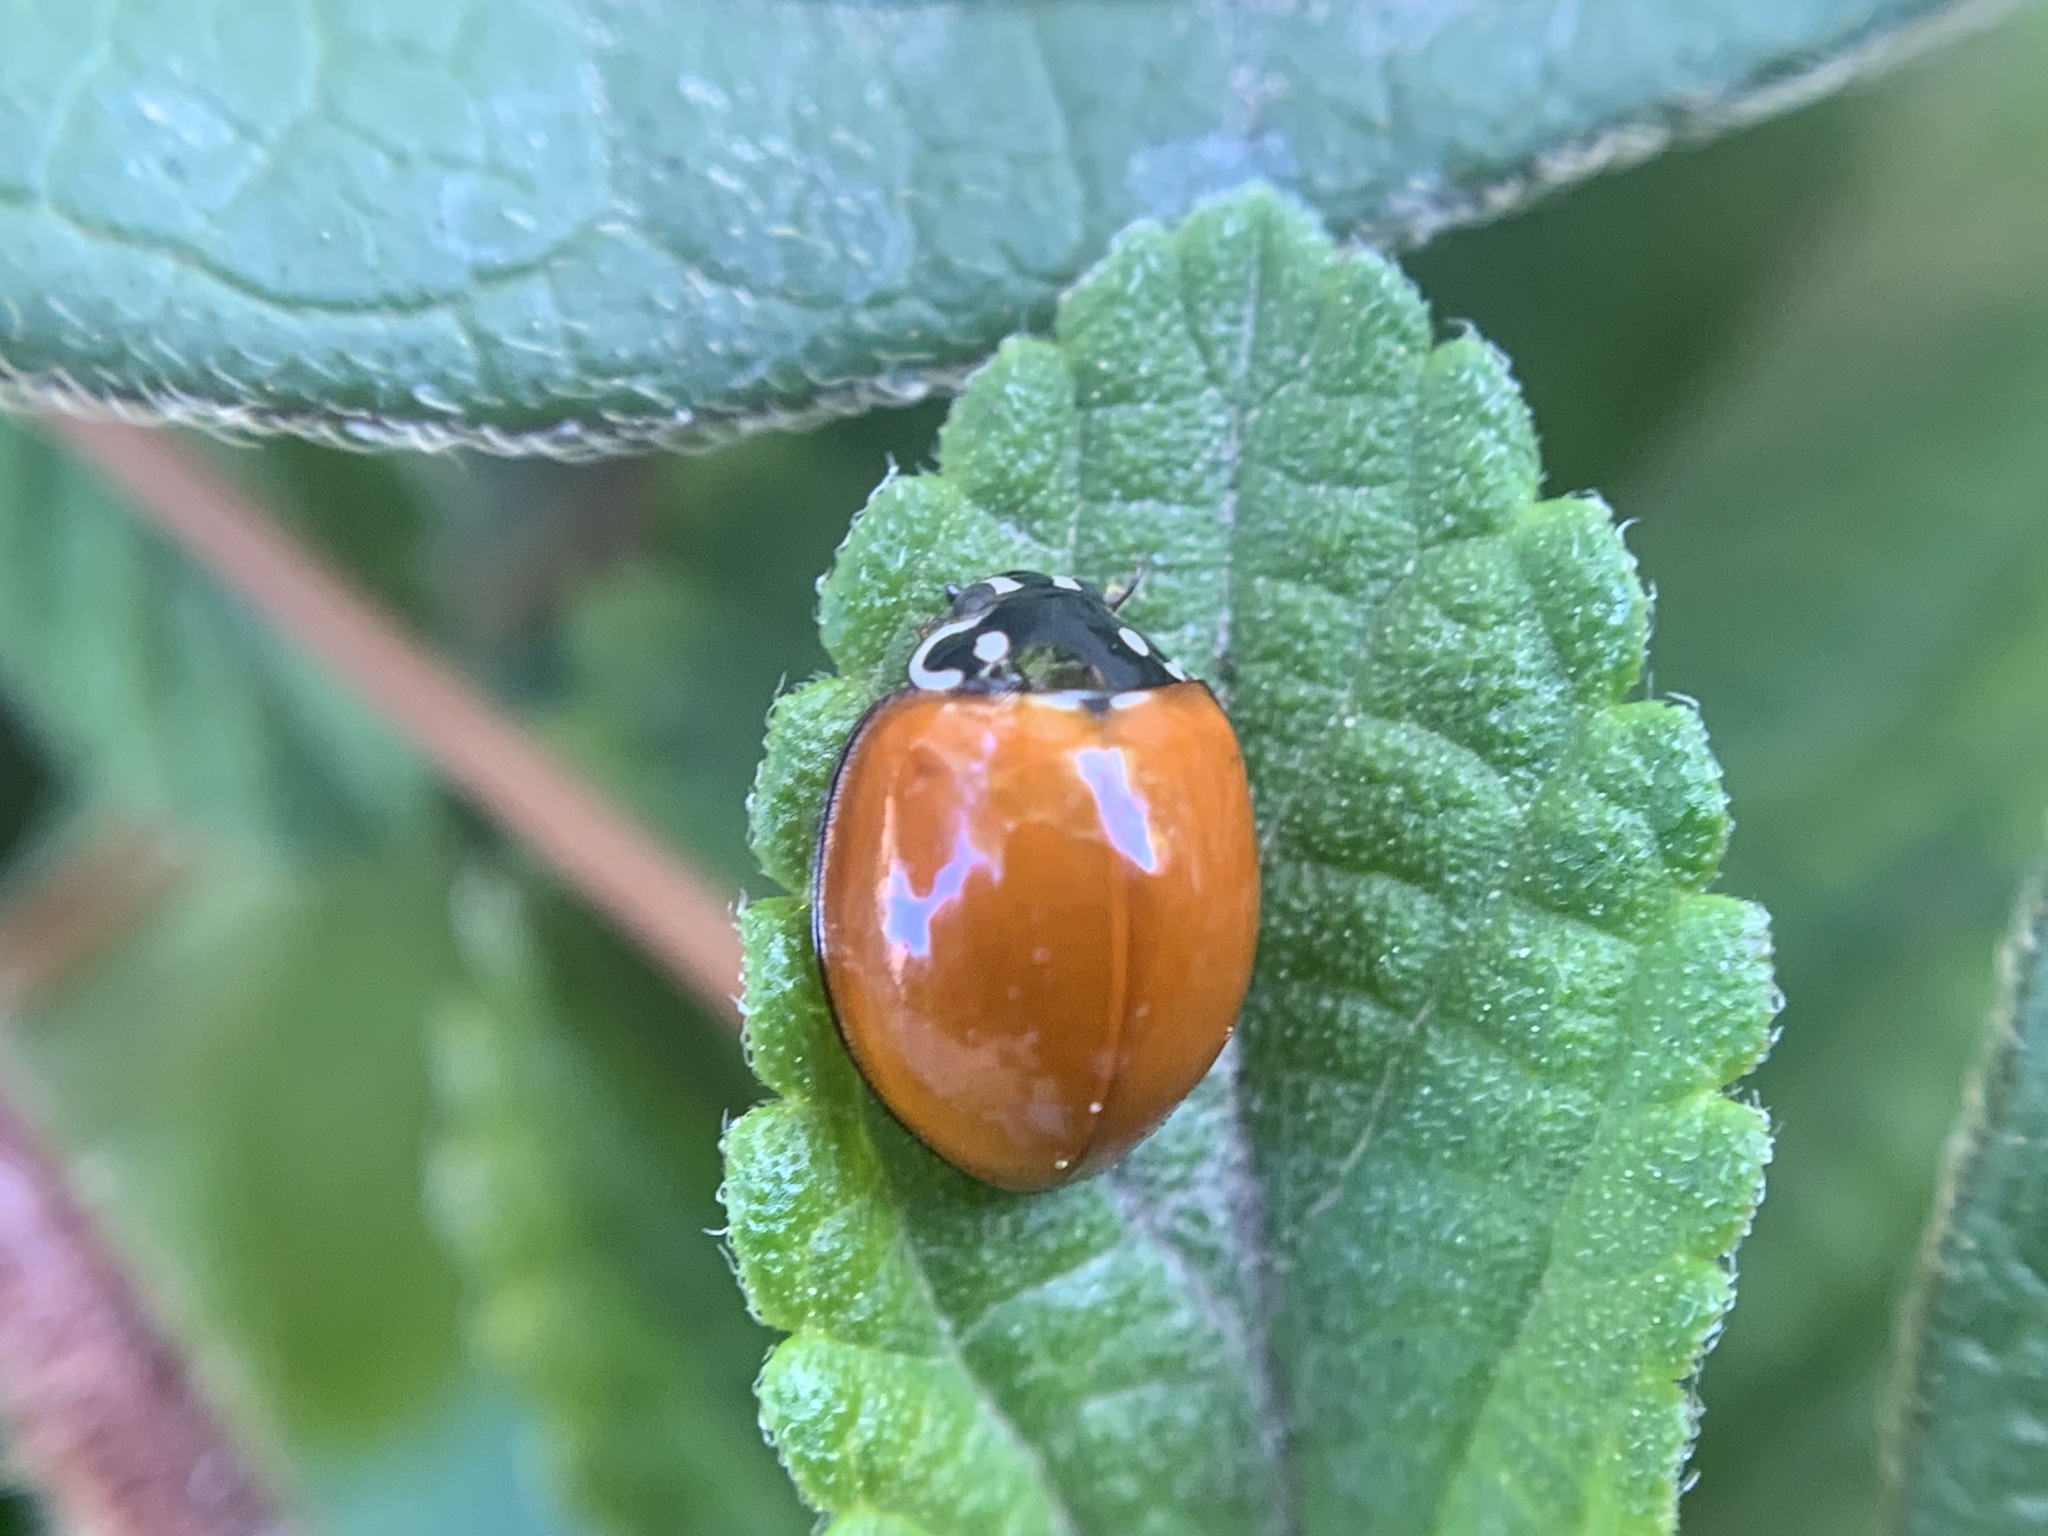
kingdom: Animalia
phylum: Arthropoda
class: Insecta
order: Coleoptera
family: Coccinellidae
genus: Cycloneda
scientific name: Cycloneda sanguinea
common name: Ladybird beetle
